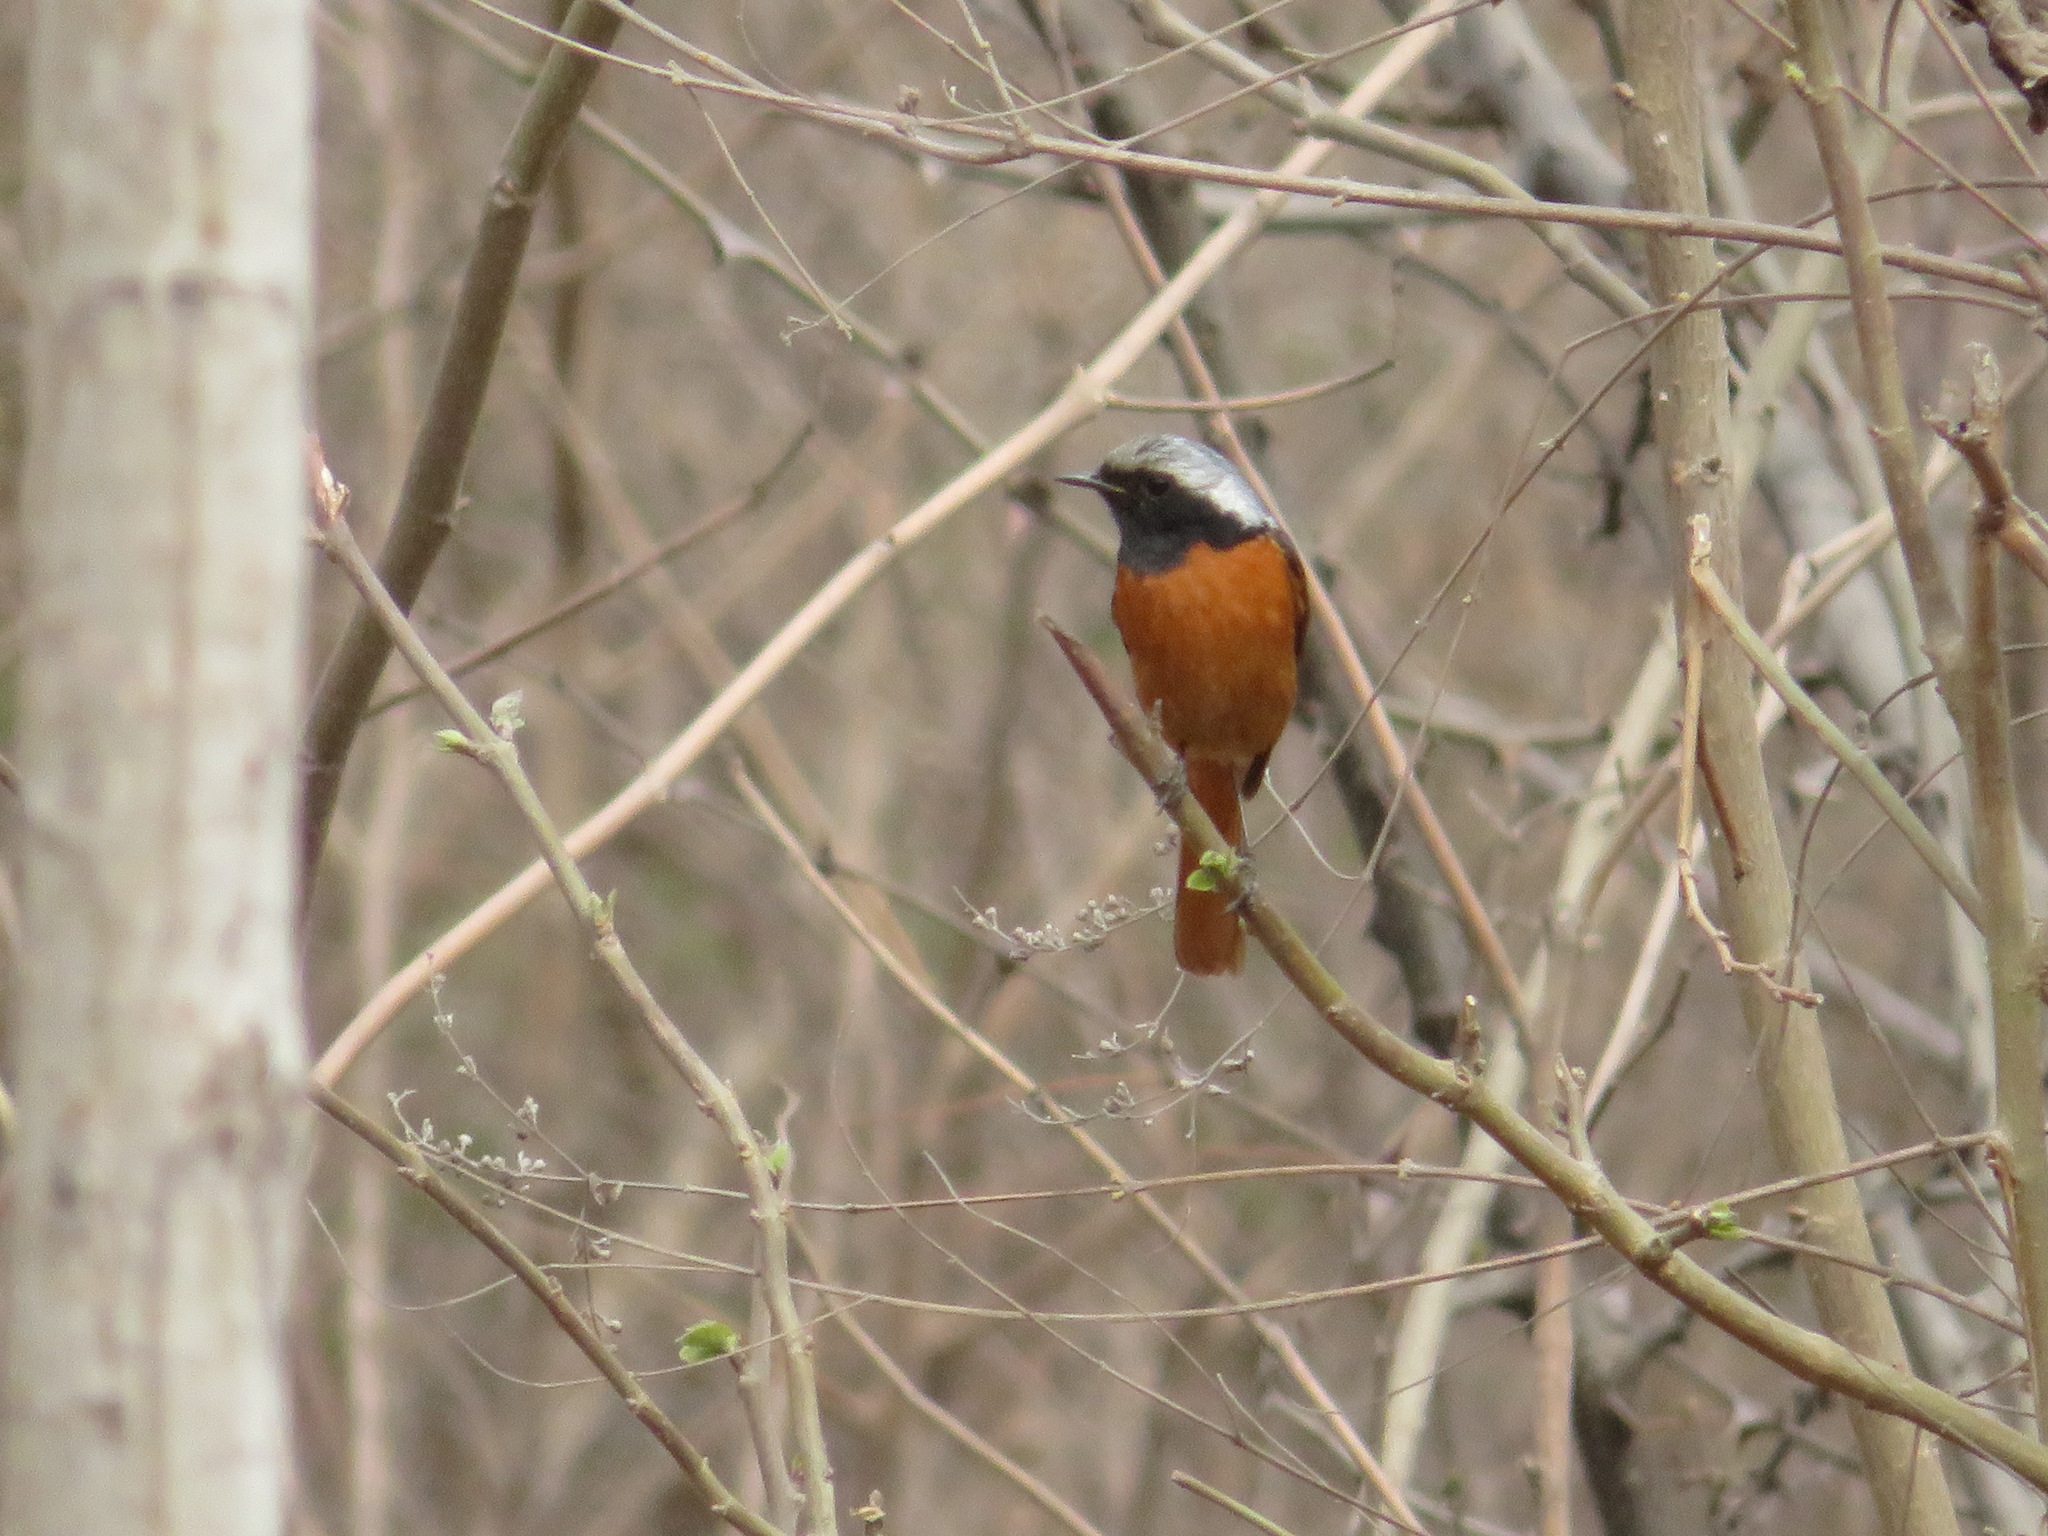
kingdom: Animalia
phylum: Chordata
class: Aves
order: Passeriformes
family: Muscicapidae
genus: Phoenicurus
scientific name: Phoenicurus auroreus
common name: Daurian redstart
